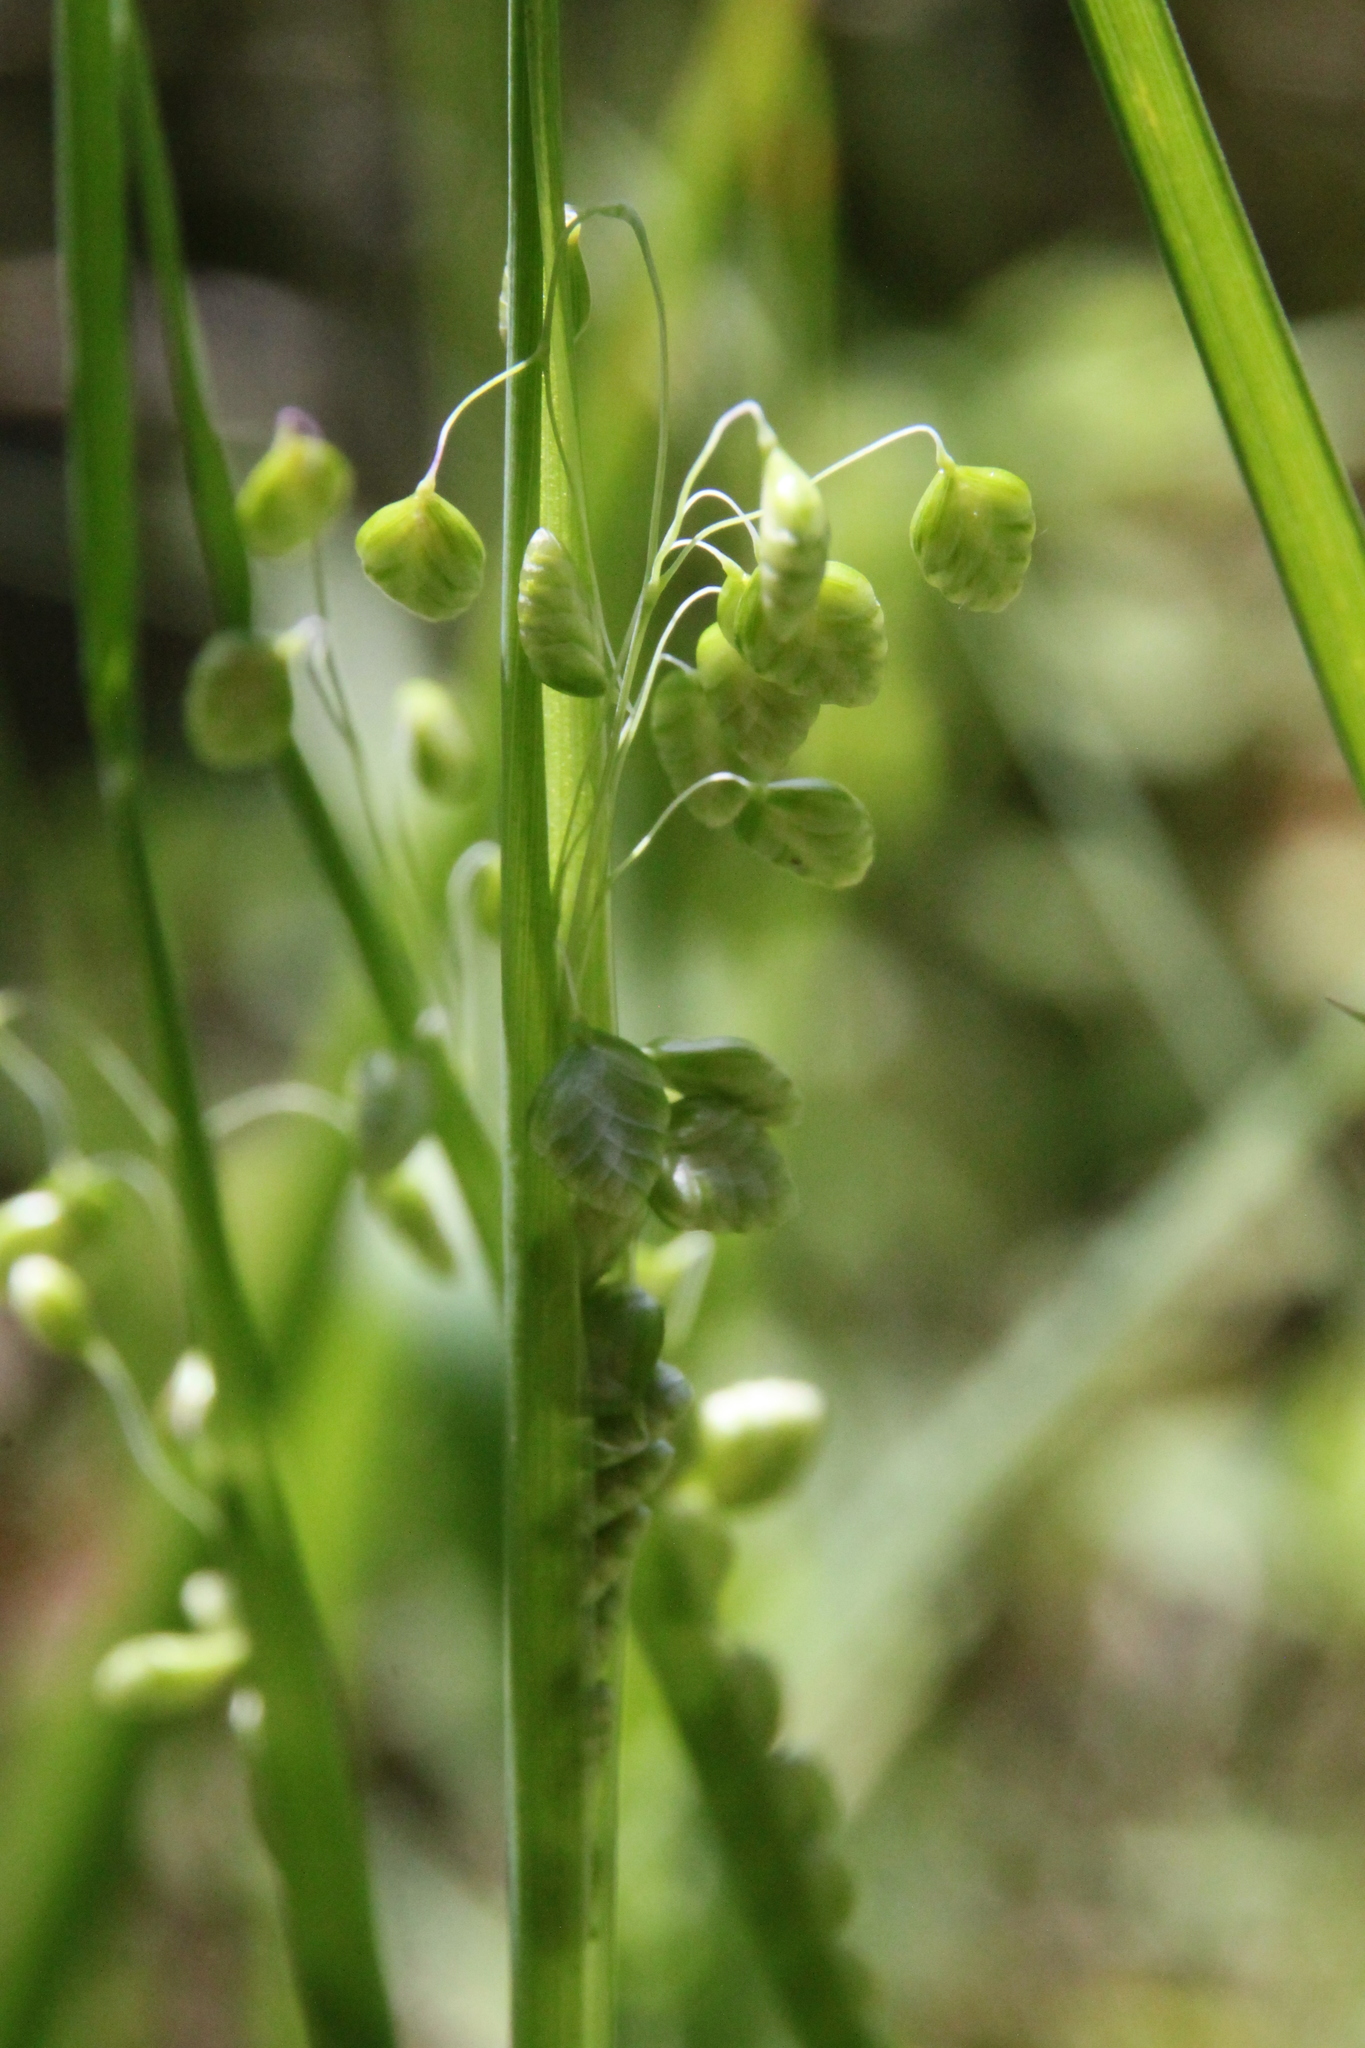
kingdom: Plantae
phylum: Tracheophyta
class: Liliopsida
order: Poales
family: Poaceae
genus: Briza
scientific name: Briza media
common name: Quaking grass
